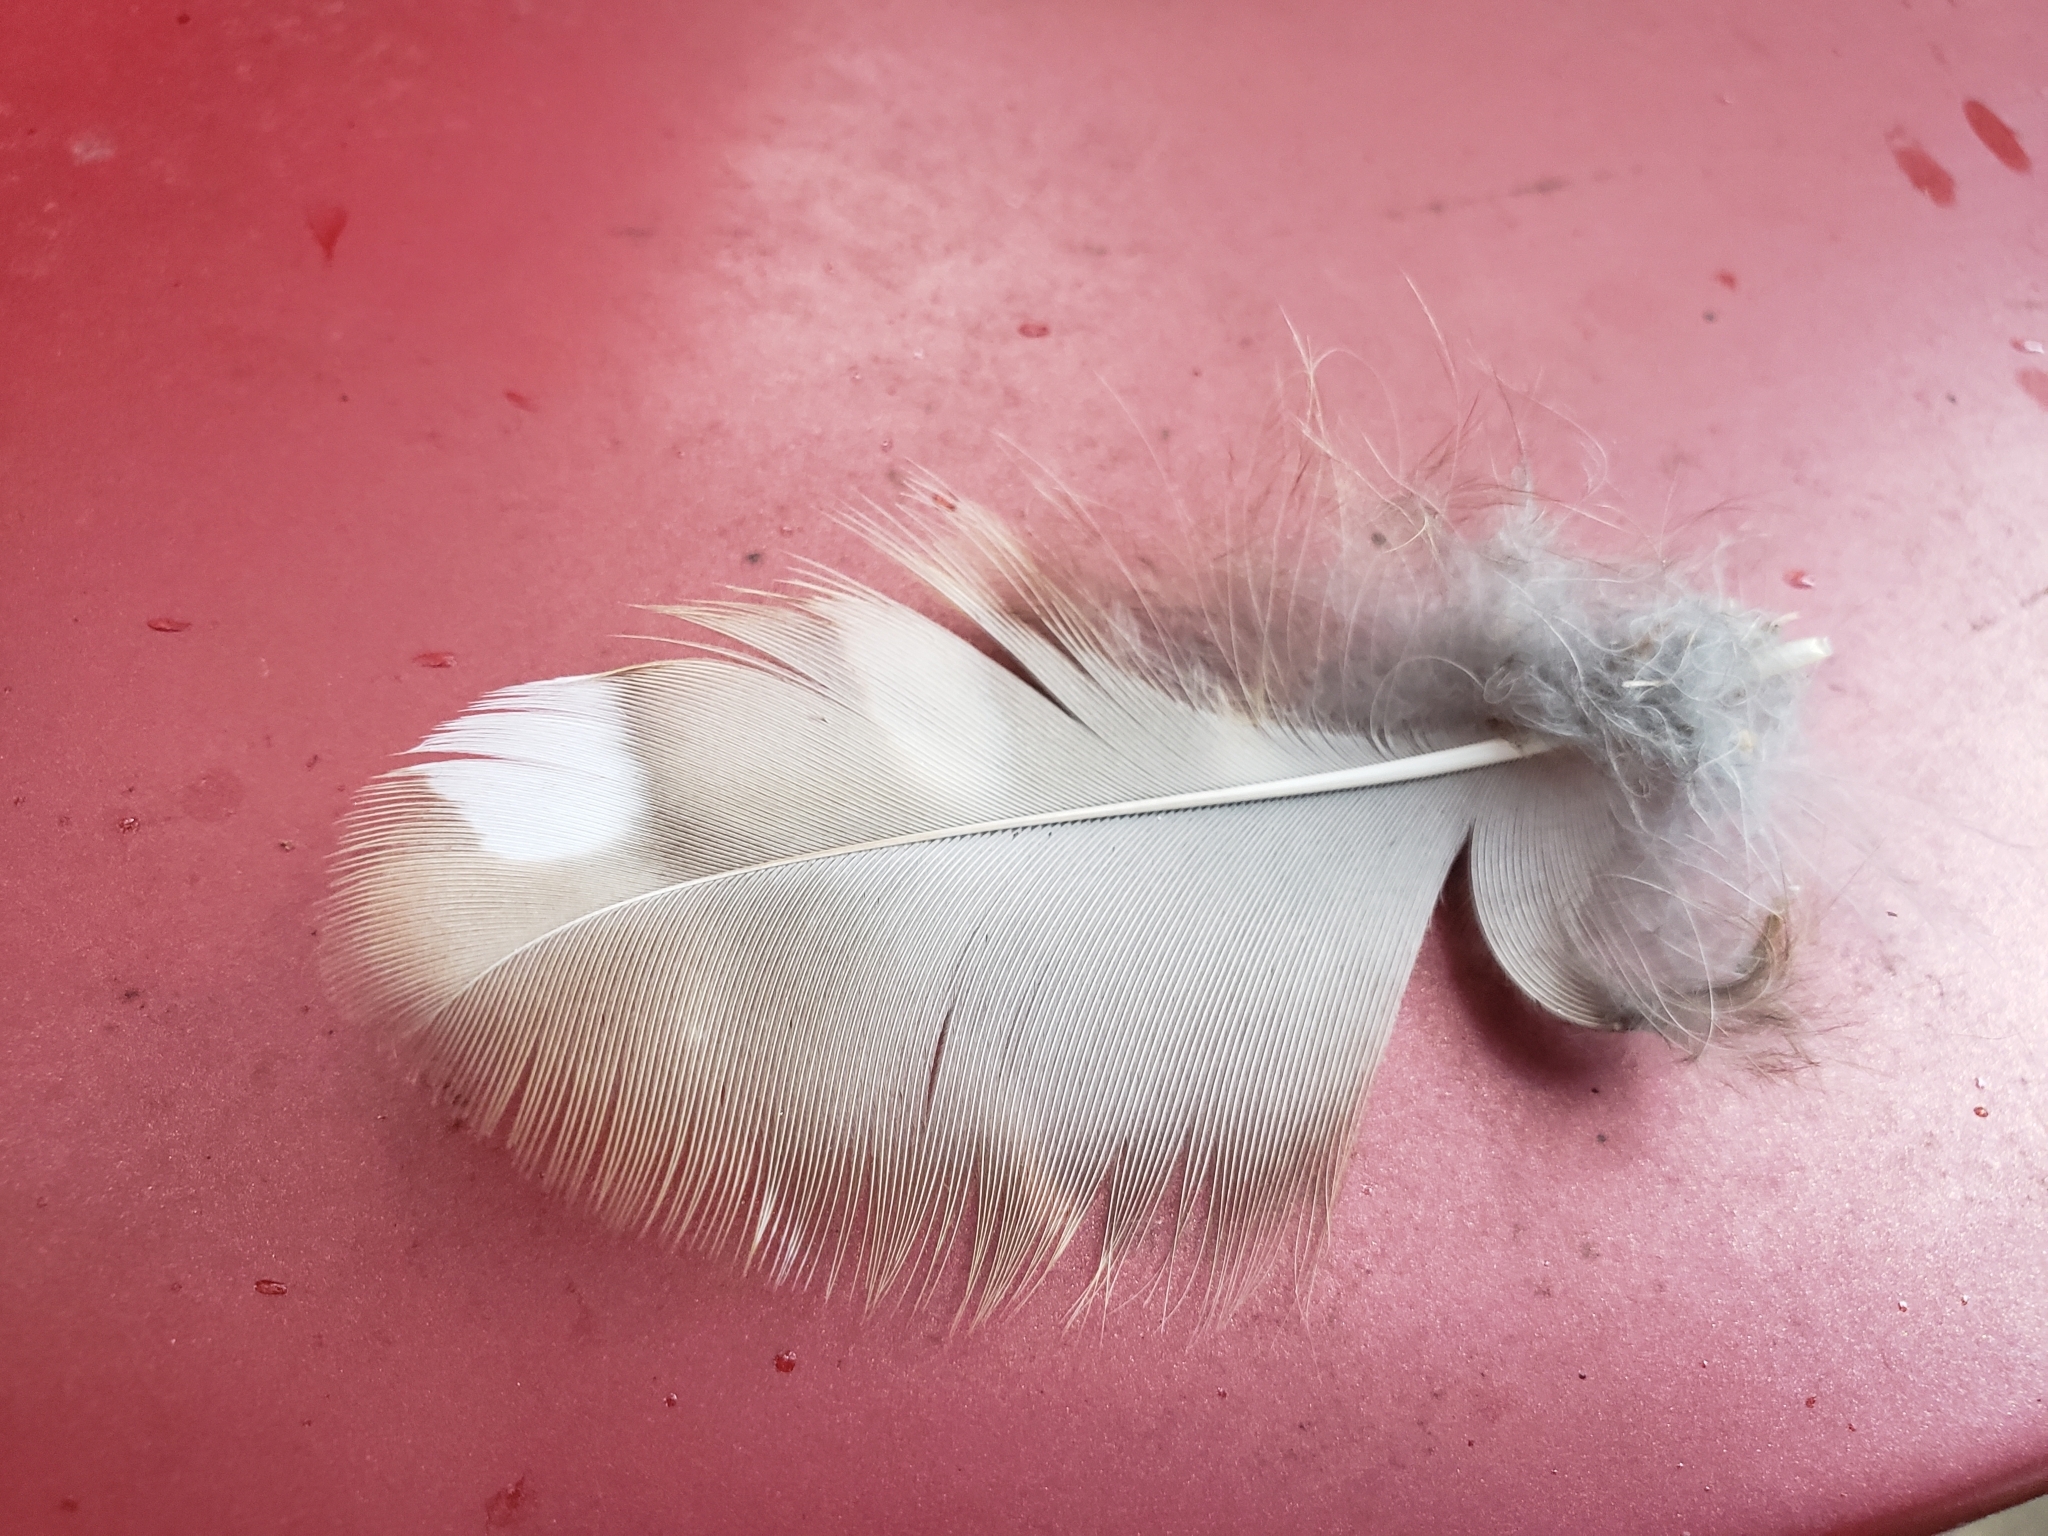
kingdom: Animalia
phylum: Chordata
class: Aves
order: Strigiformes
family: Strigidae
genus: Strix
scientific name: Strix varia
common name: Barred owl
